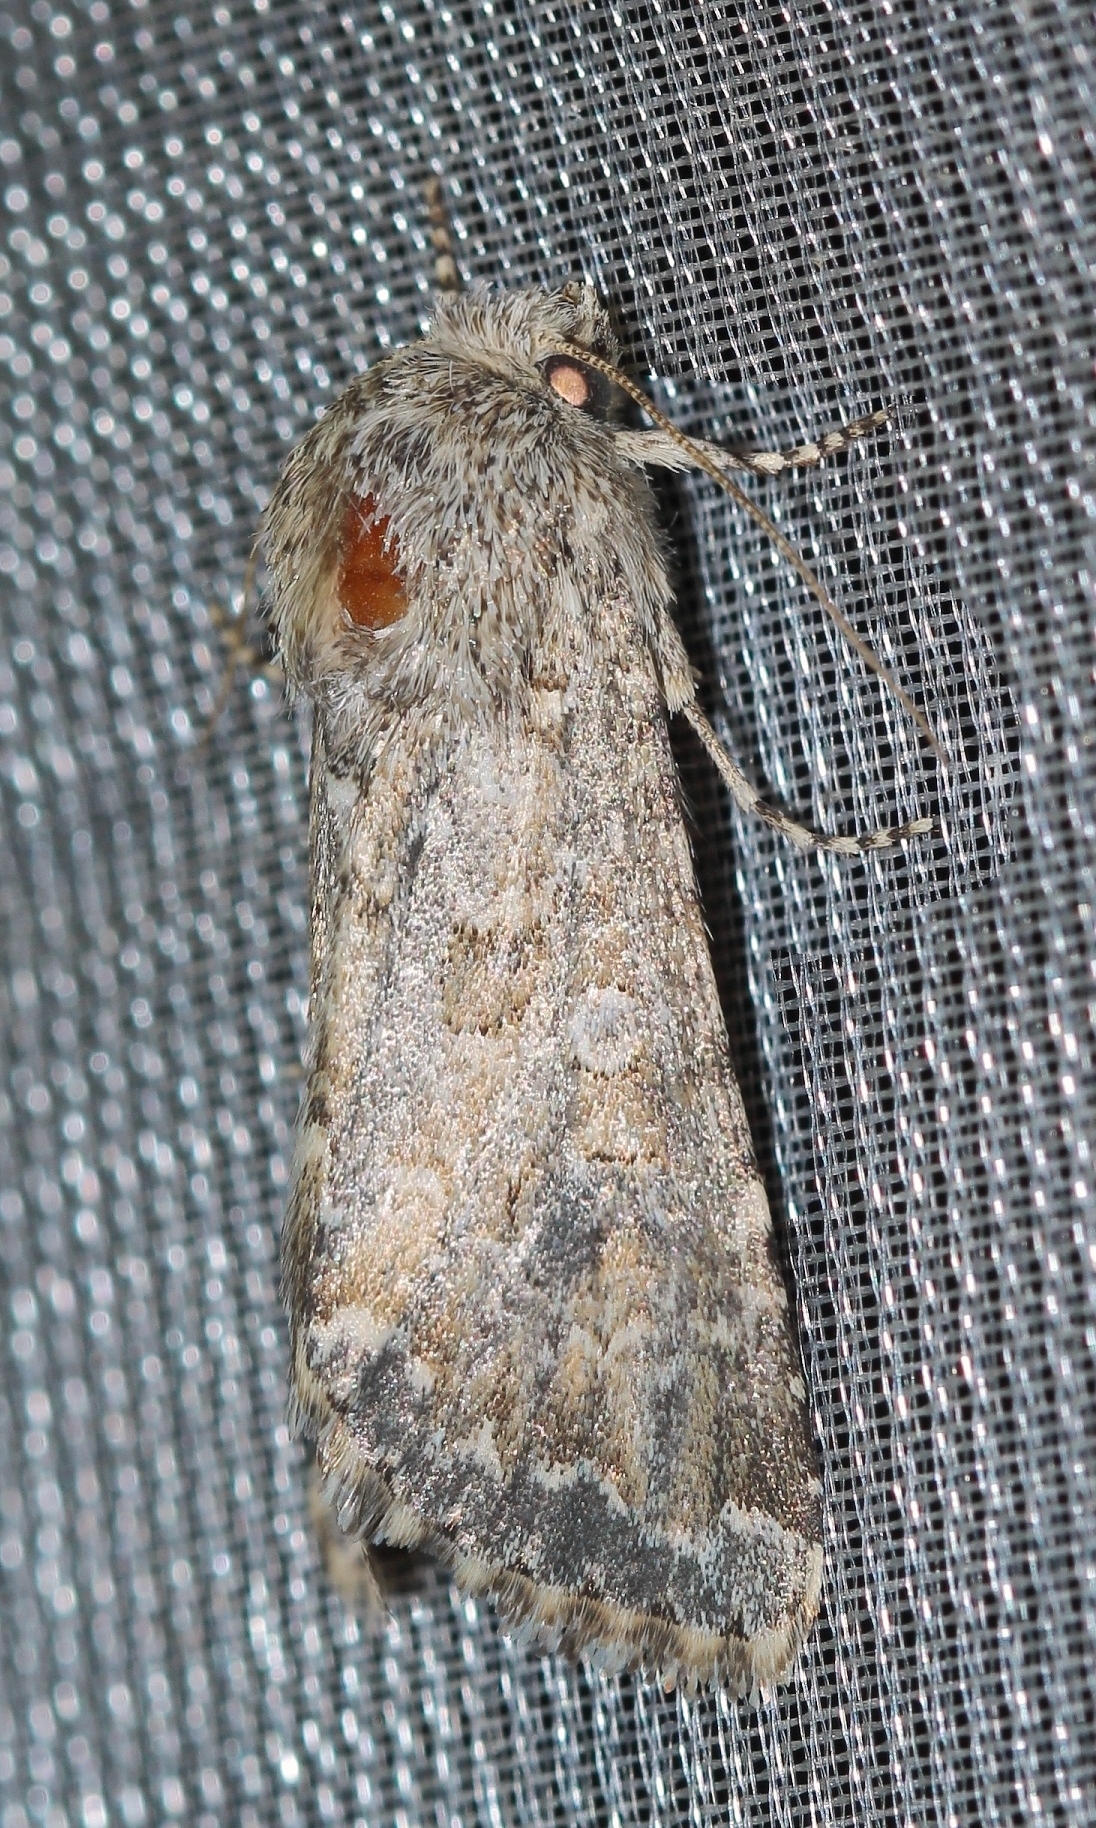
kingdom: Animalia
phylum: Arthropoda
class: Insecta
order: Lepidoptera
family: Noctuidae
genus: Cardepia
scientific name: Cardepia irrisoria
